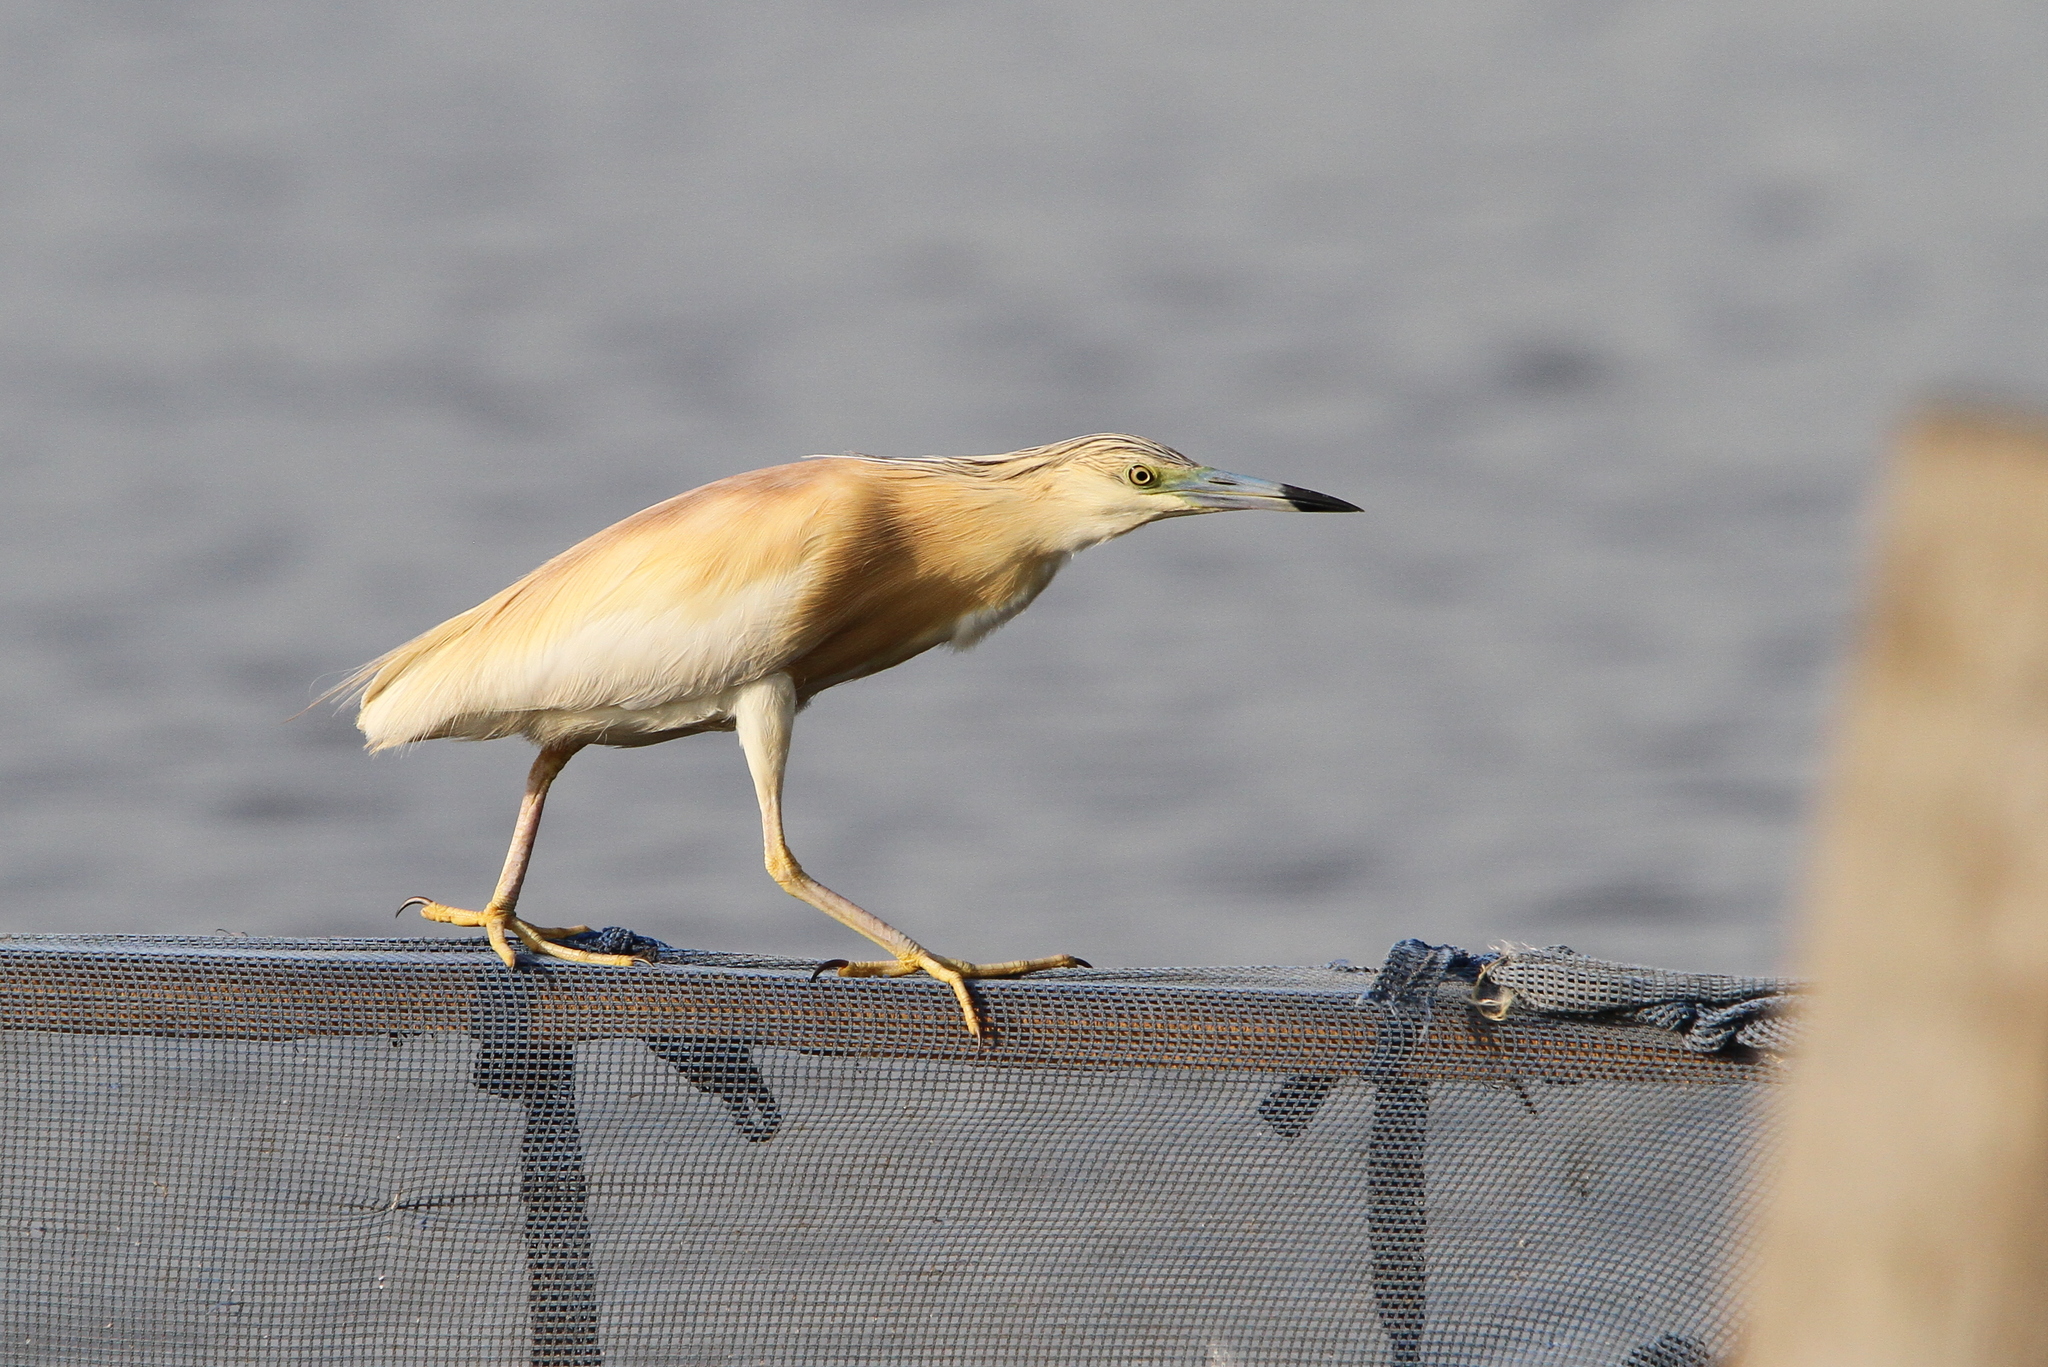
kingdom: Animalia
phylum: Chordata
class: Aves
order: Pelecaniformes
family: Ardeidae
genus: Ardeola
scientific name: Ardeola ralloides
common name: Squacco heron
